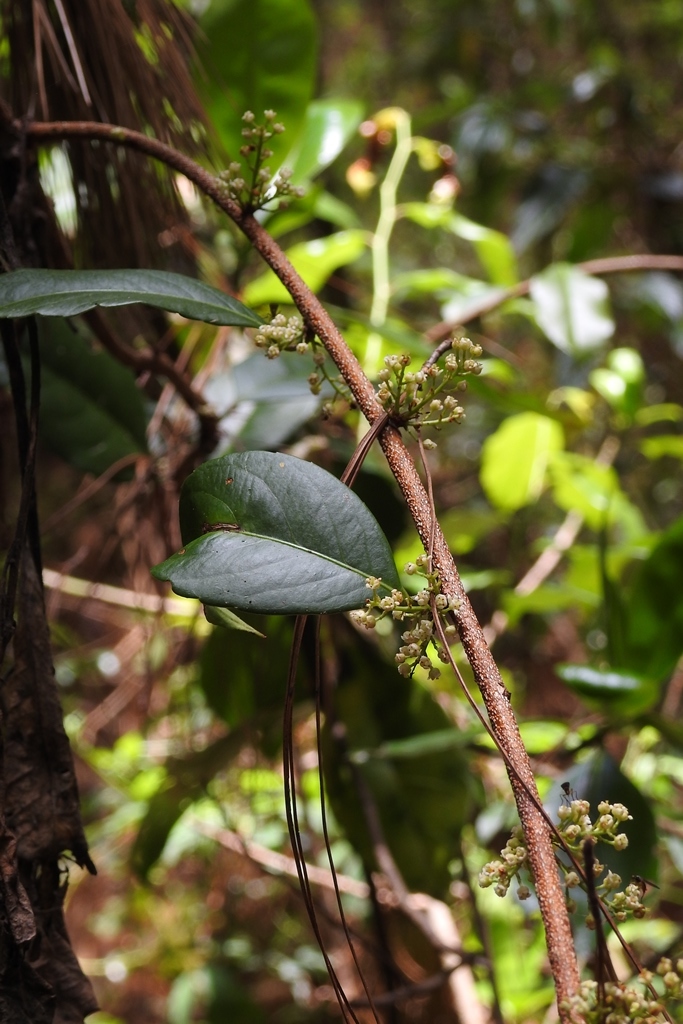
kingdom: Plantae
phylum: Tracheophyta
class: Magnoliopsida
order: Celastrales
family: Celastraceae
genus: Celastrus
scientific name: Celastrus vulcanicola
